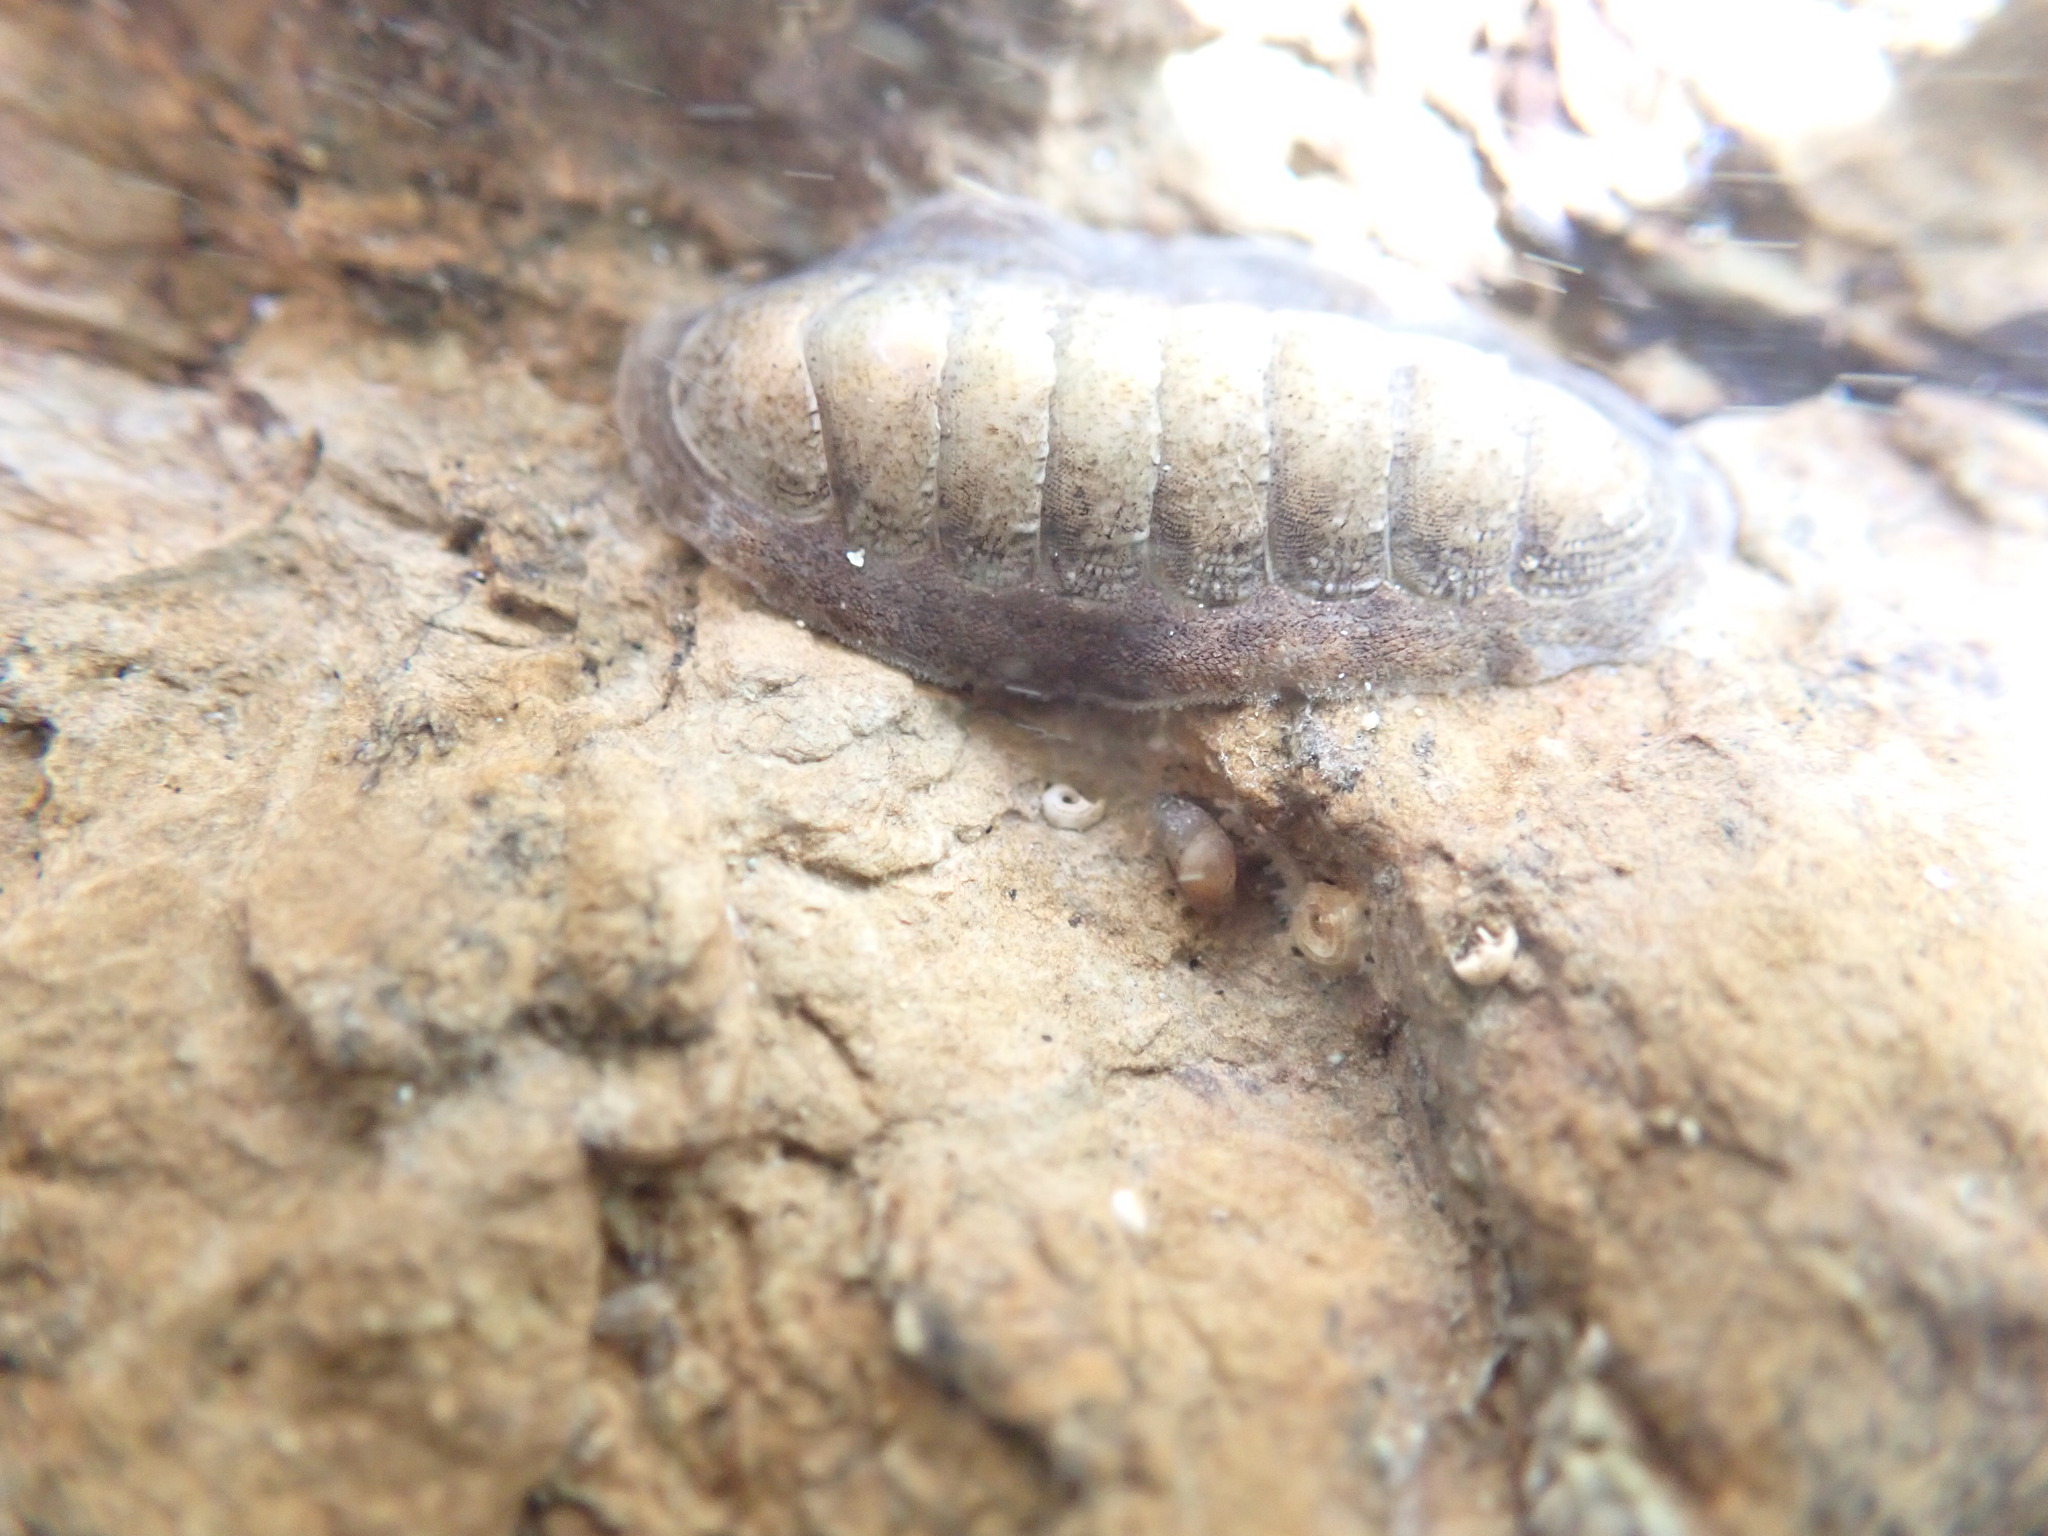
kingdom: Animalia
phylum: Mollusca
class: Polyplacophora
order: Chitonida
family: Ischnochitonidae
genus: Ischnochiton
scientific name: Ischnochiton maorianus
